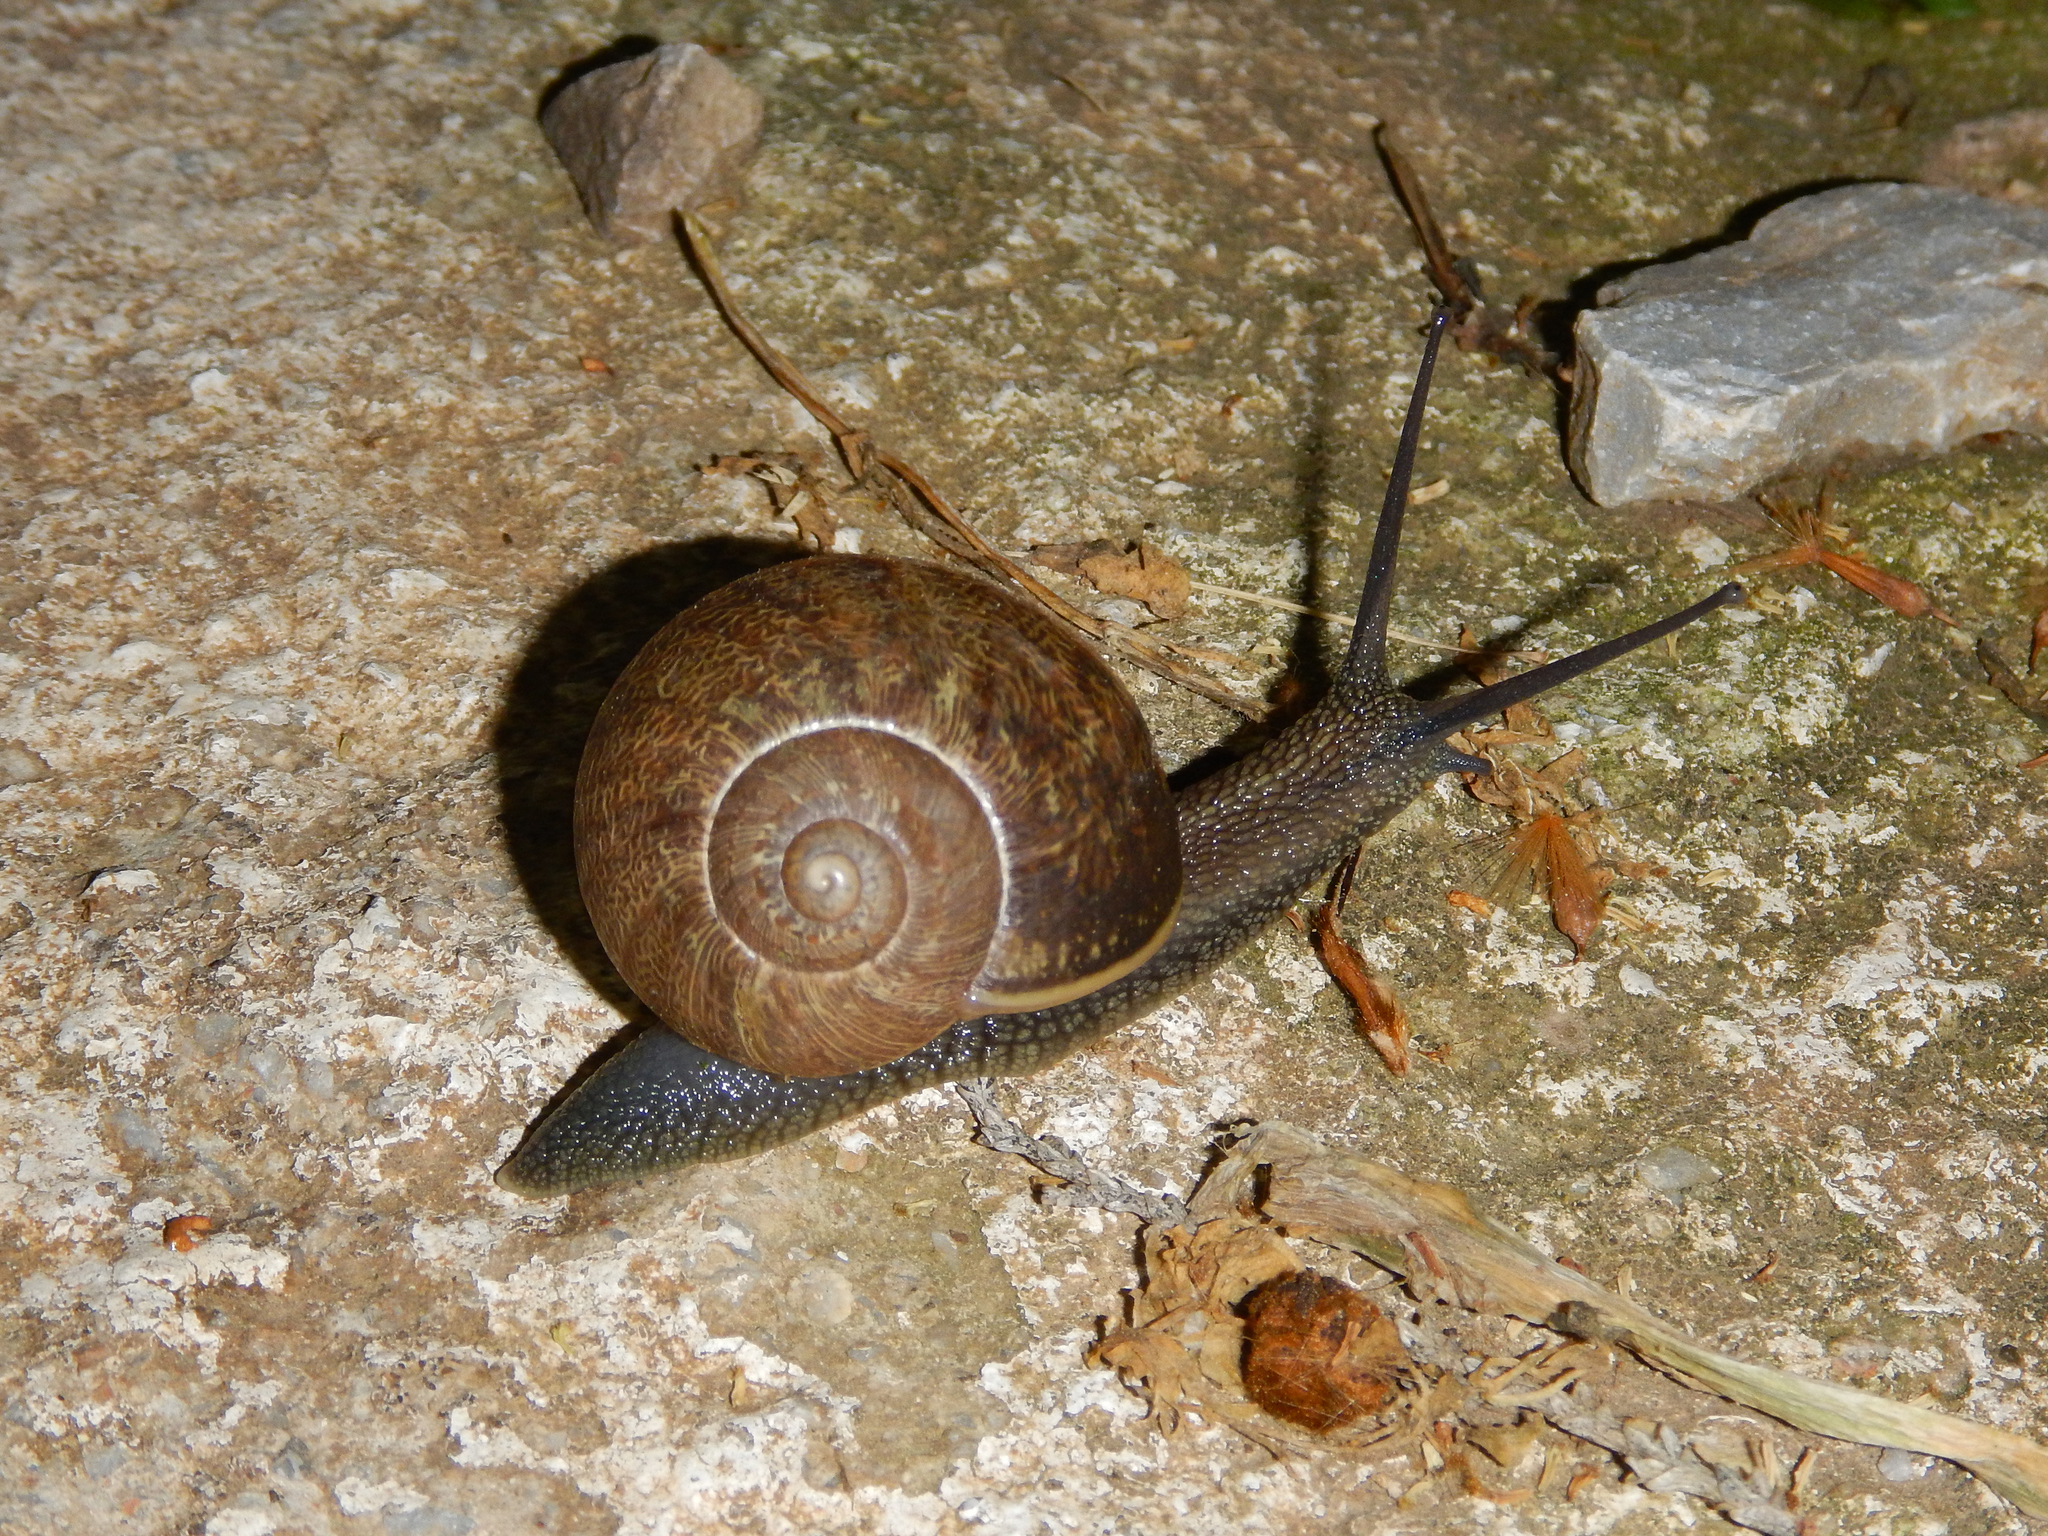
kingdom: Animalia
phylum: Mollusca
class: Gastropoda
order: Stylommatophora
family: Helicidae
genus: Cornu
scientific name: Cornu aspersum
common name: Brown garden snail
